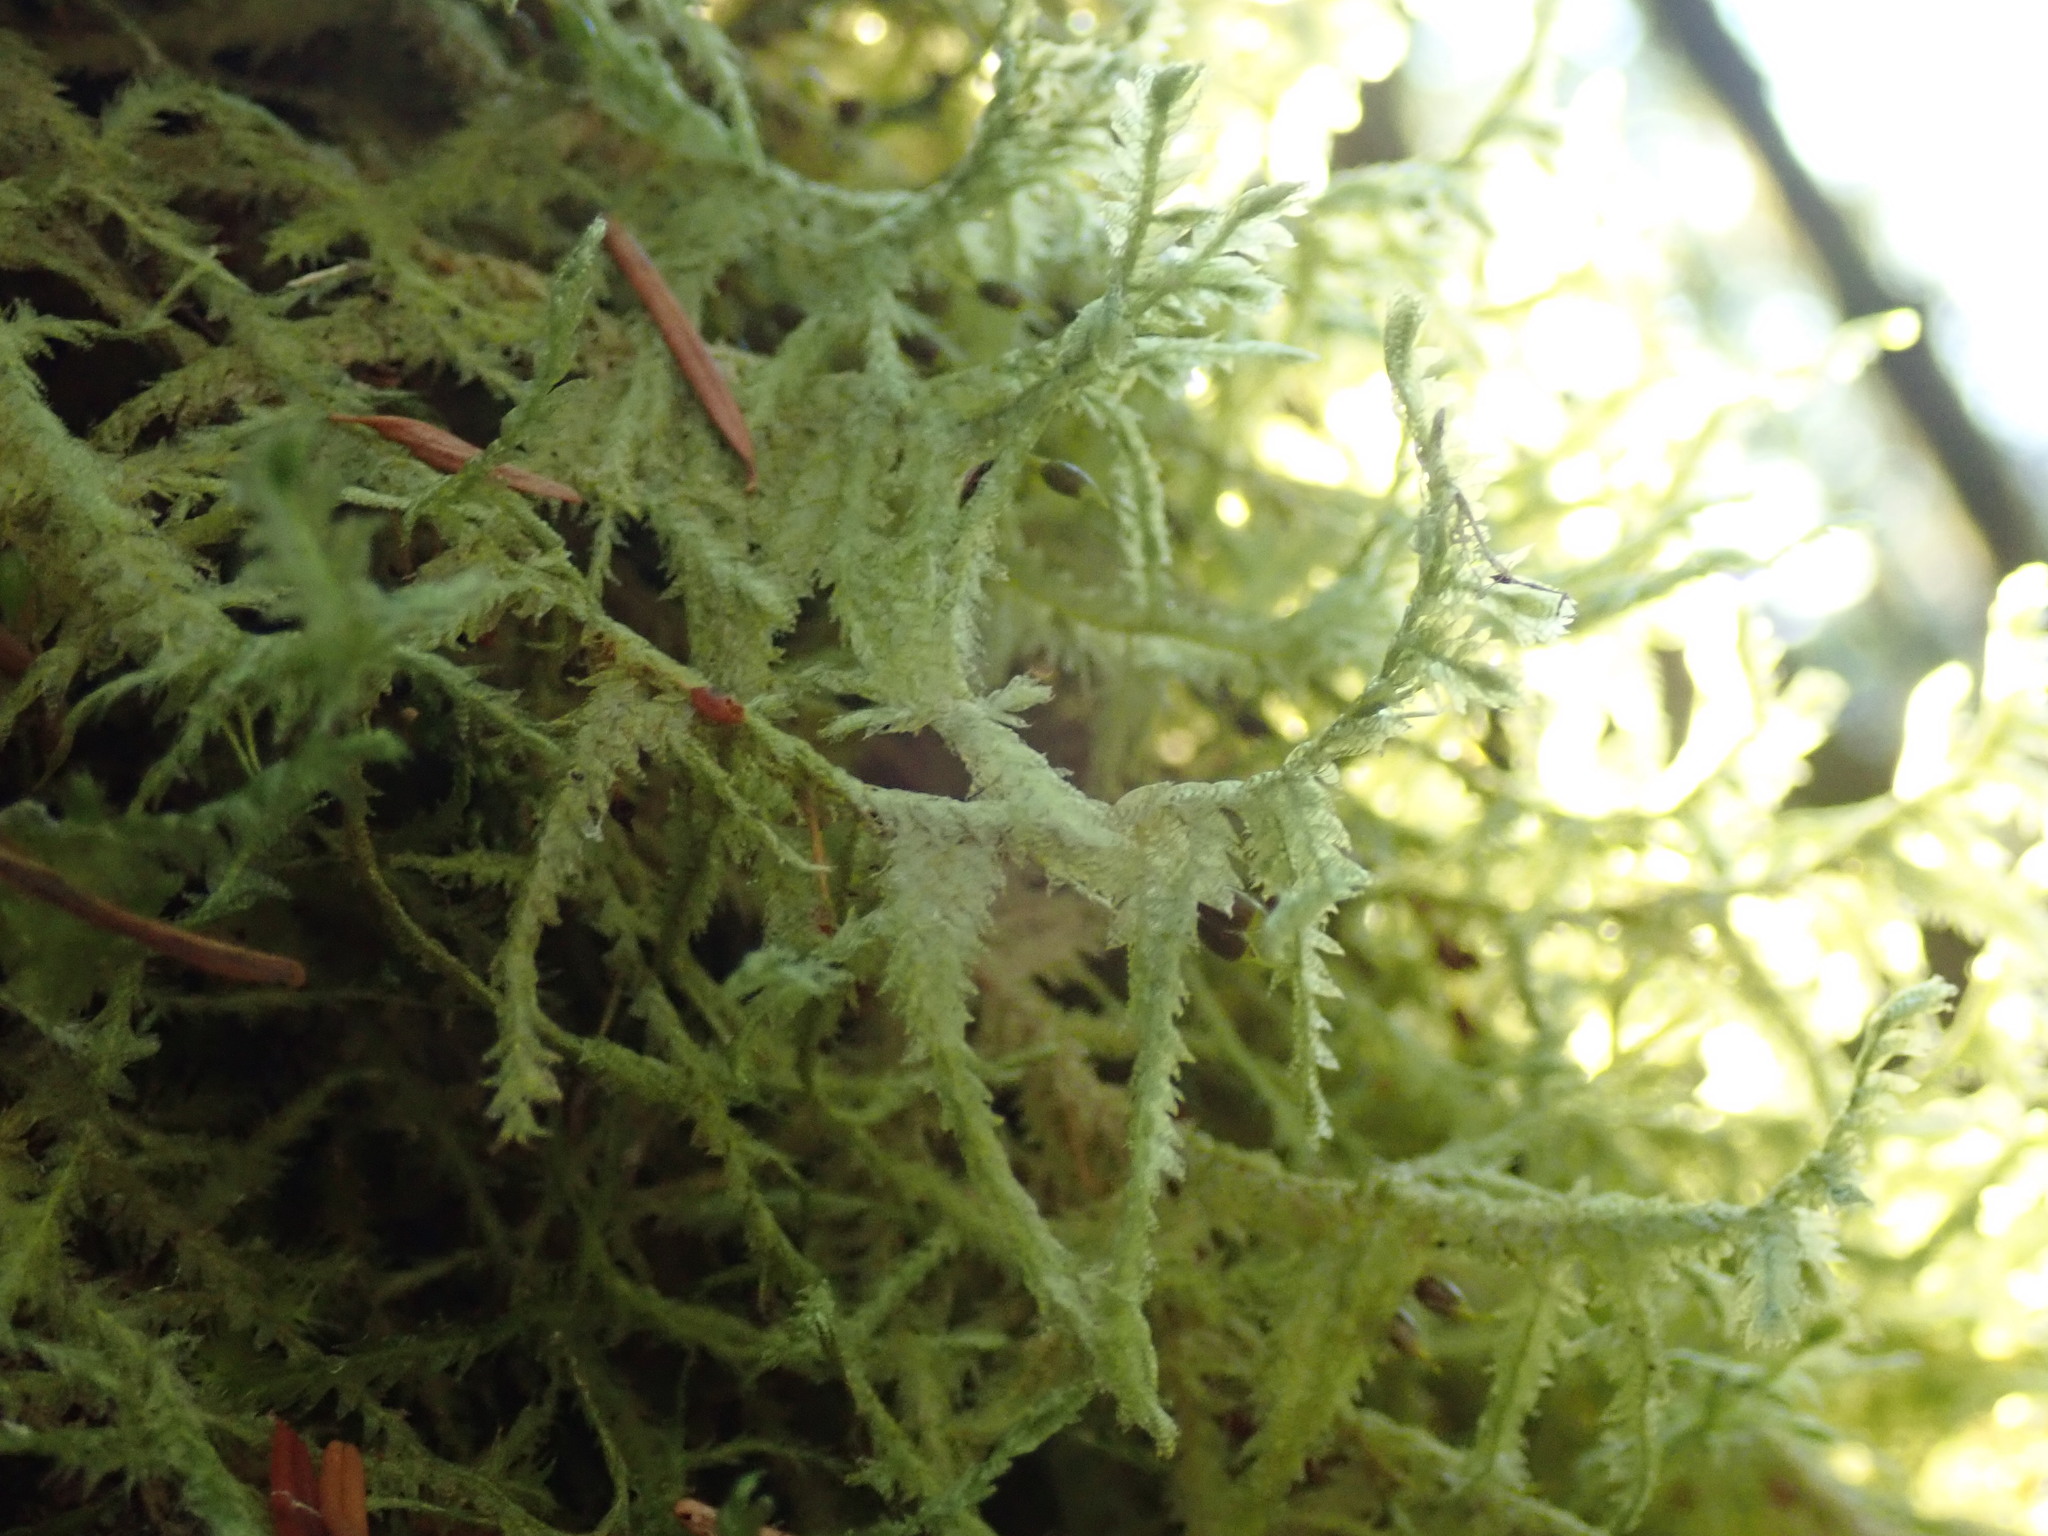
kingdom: Plantae
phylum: Bryophyta
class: Bryopsida
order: Hypnales
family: Neckeraceae
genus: Neckera
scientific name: Neckera douglasii
